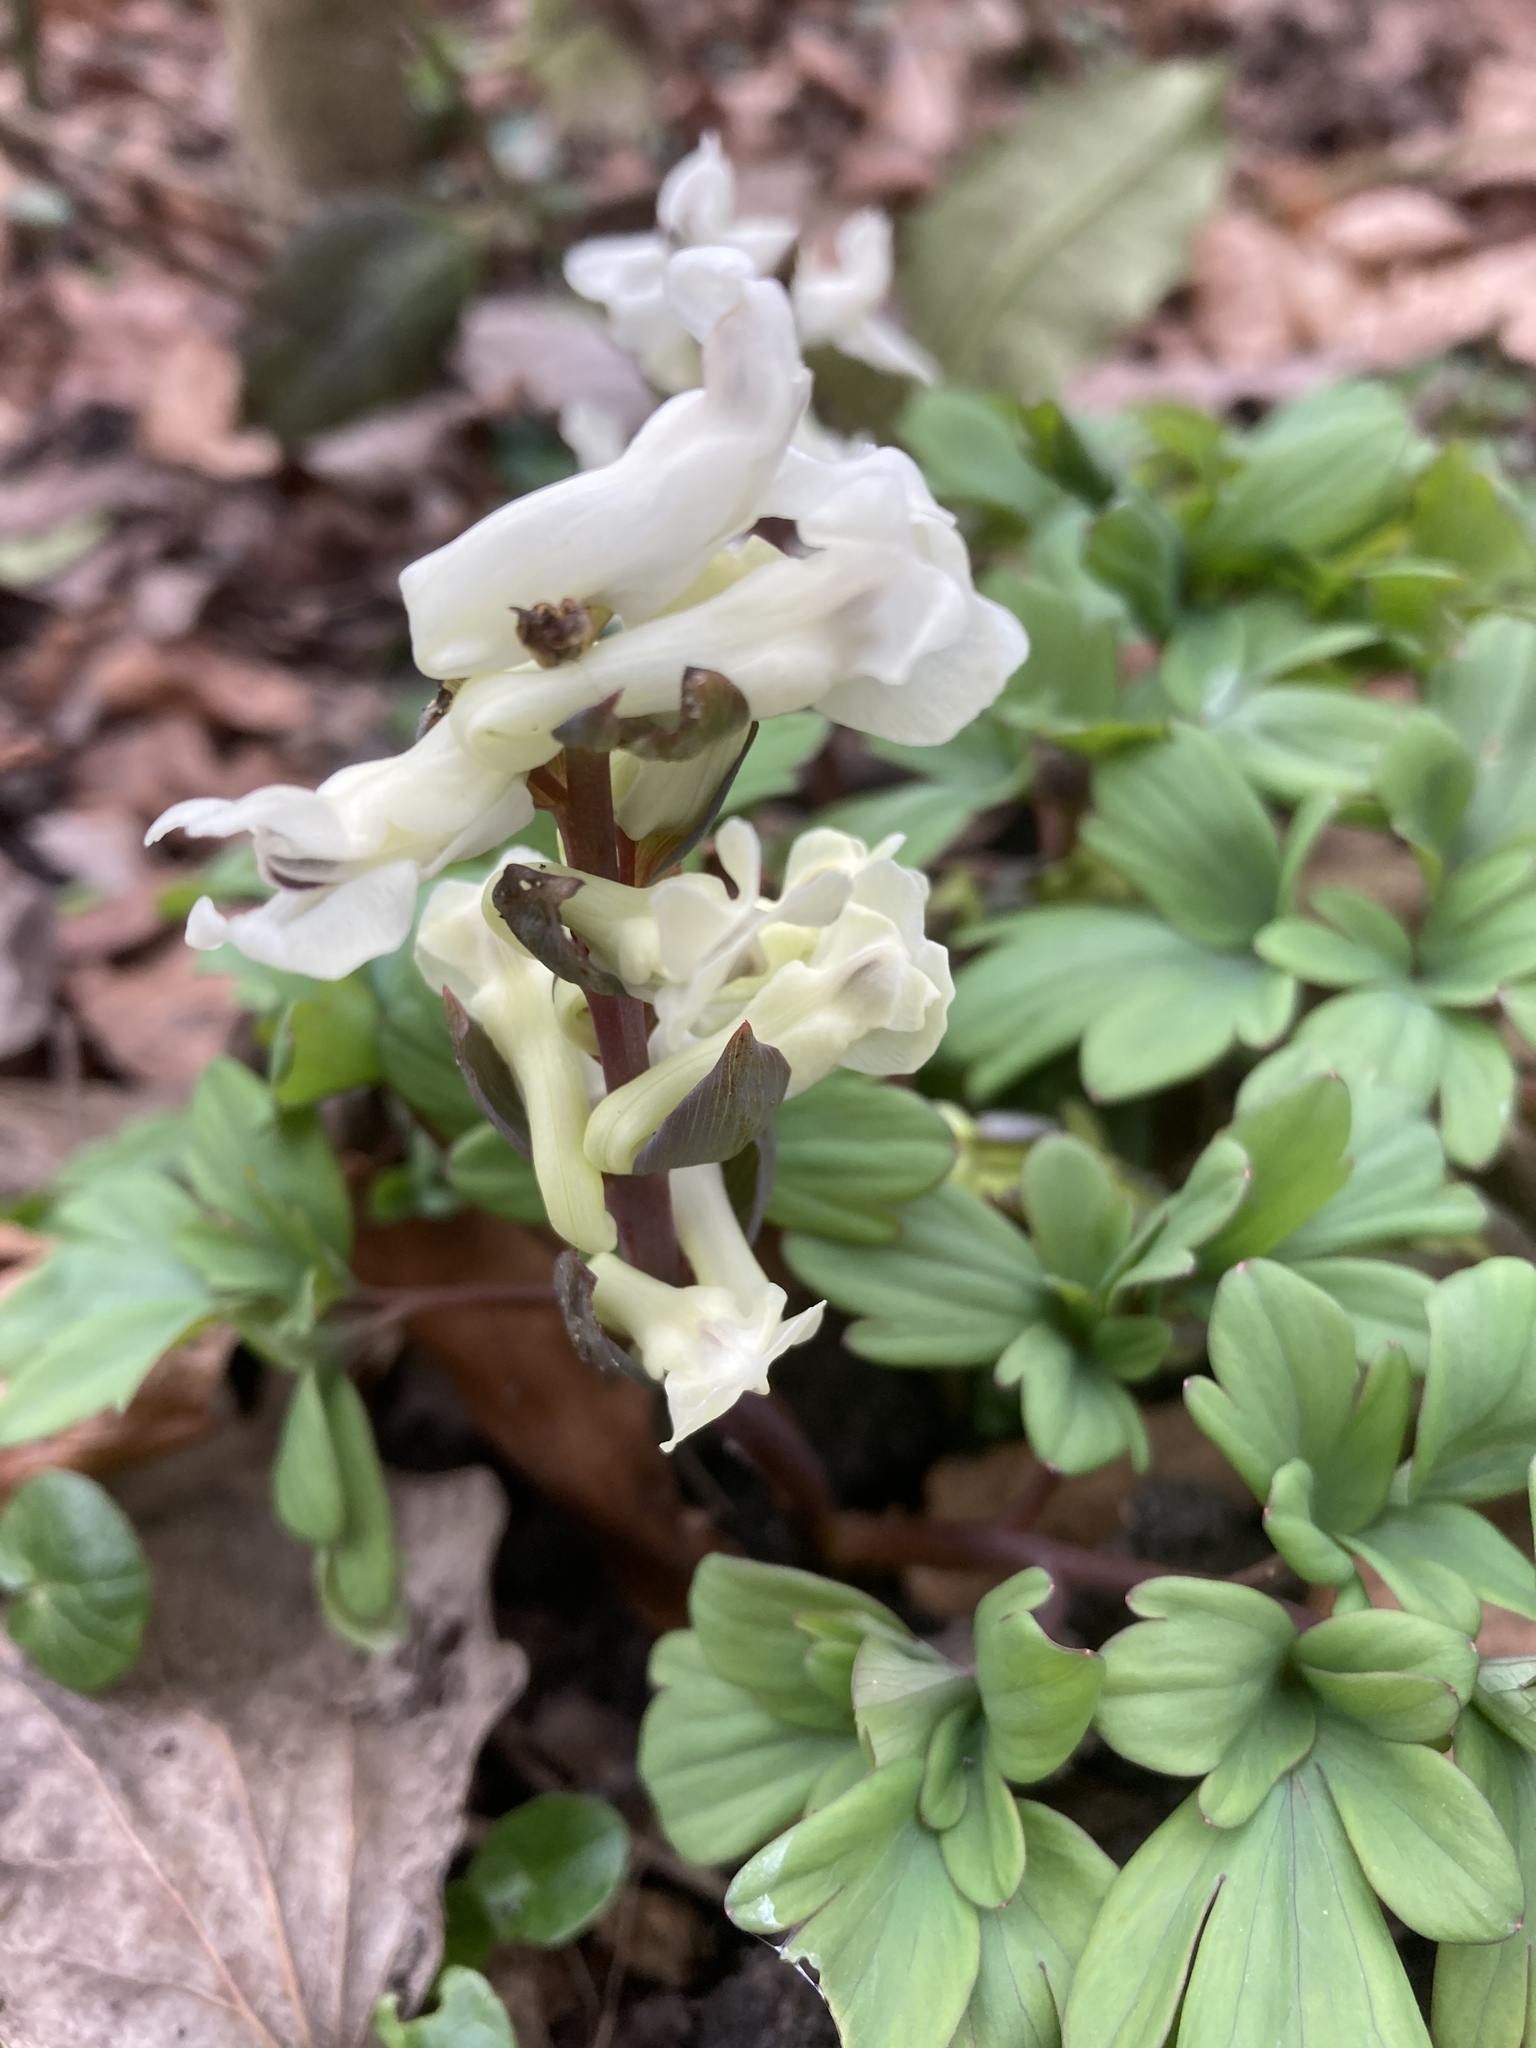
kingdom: Plantae
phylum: Tracheophyta
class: Magnoliopsida
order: Ranunculales
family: Papaveraceae
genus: Corydalis
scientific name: Corydalis cava
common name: Hollowroot
